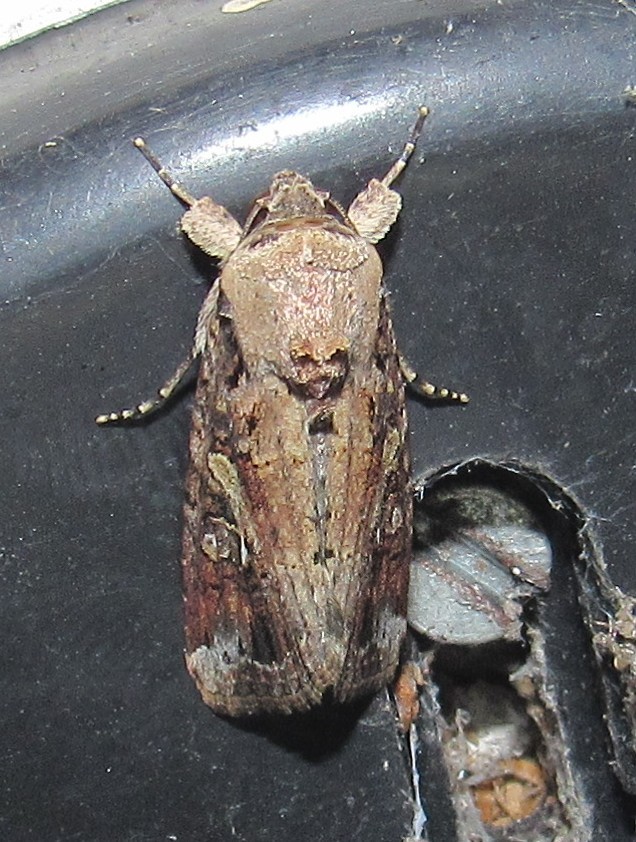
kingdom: Animalia
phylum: Arthropoda
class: Insecta
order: Lepidoptera
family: Noctuidae
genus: Spodoptera
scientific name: Spodoptera frugiperda
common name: Fall armyworm
